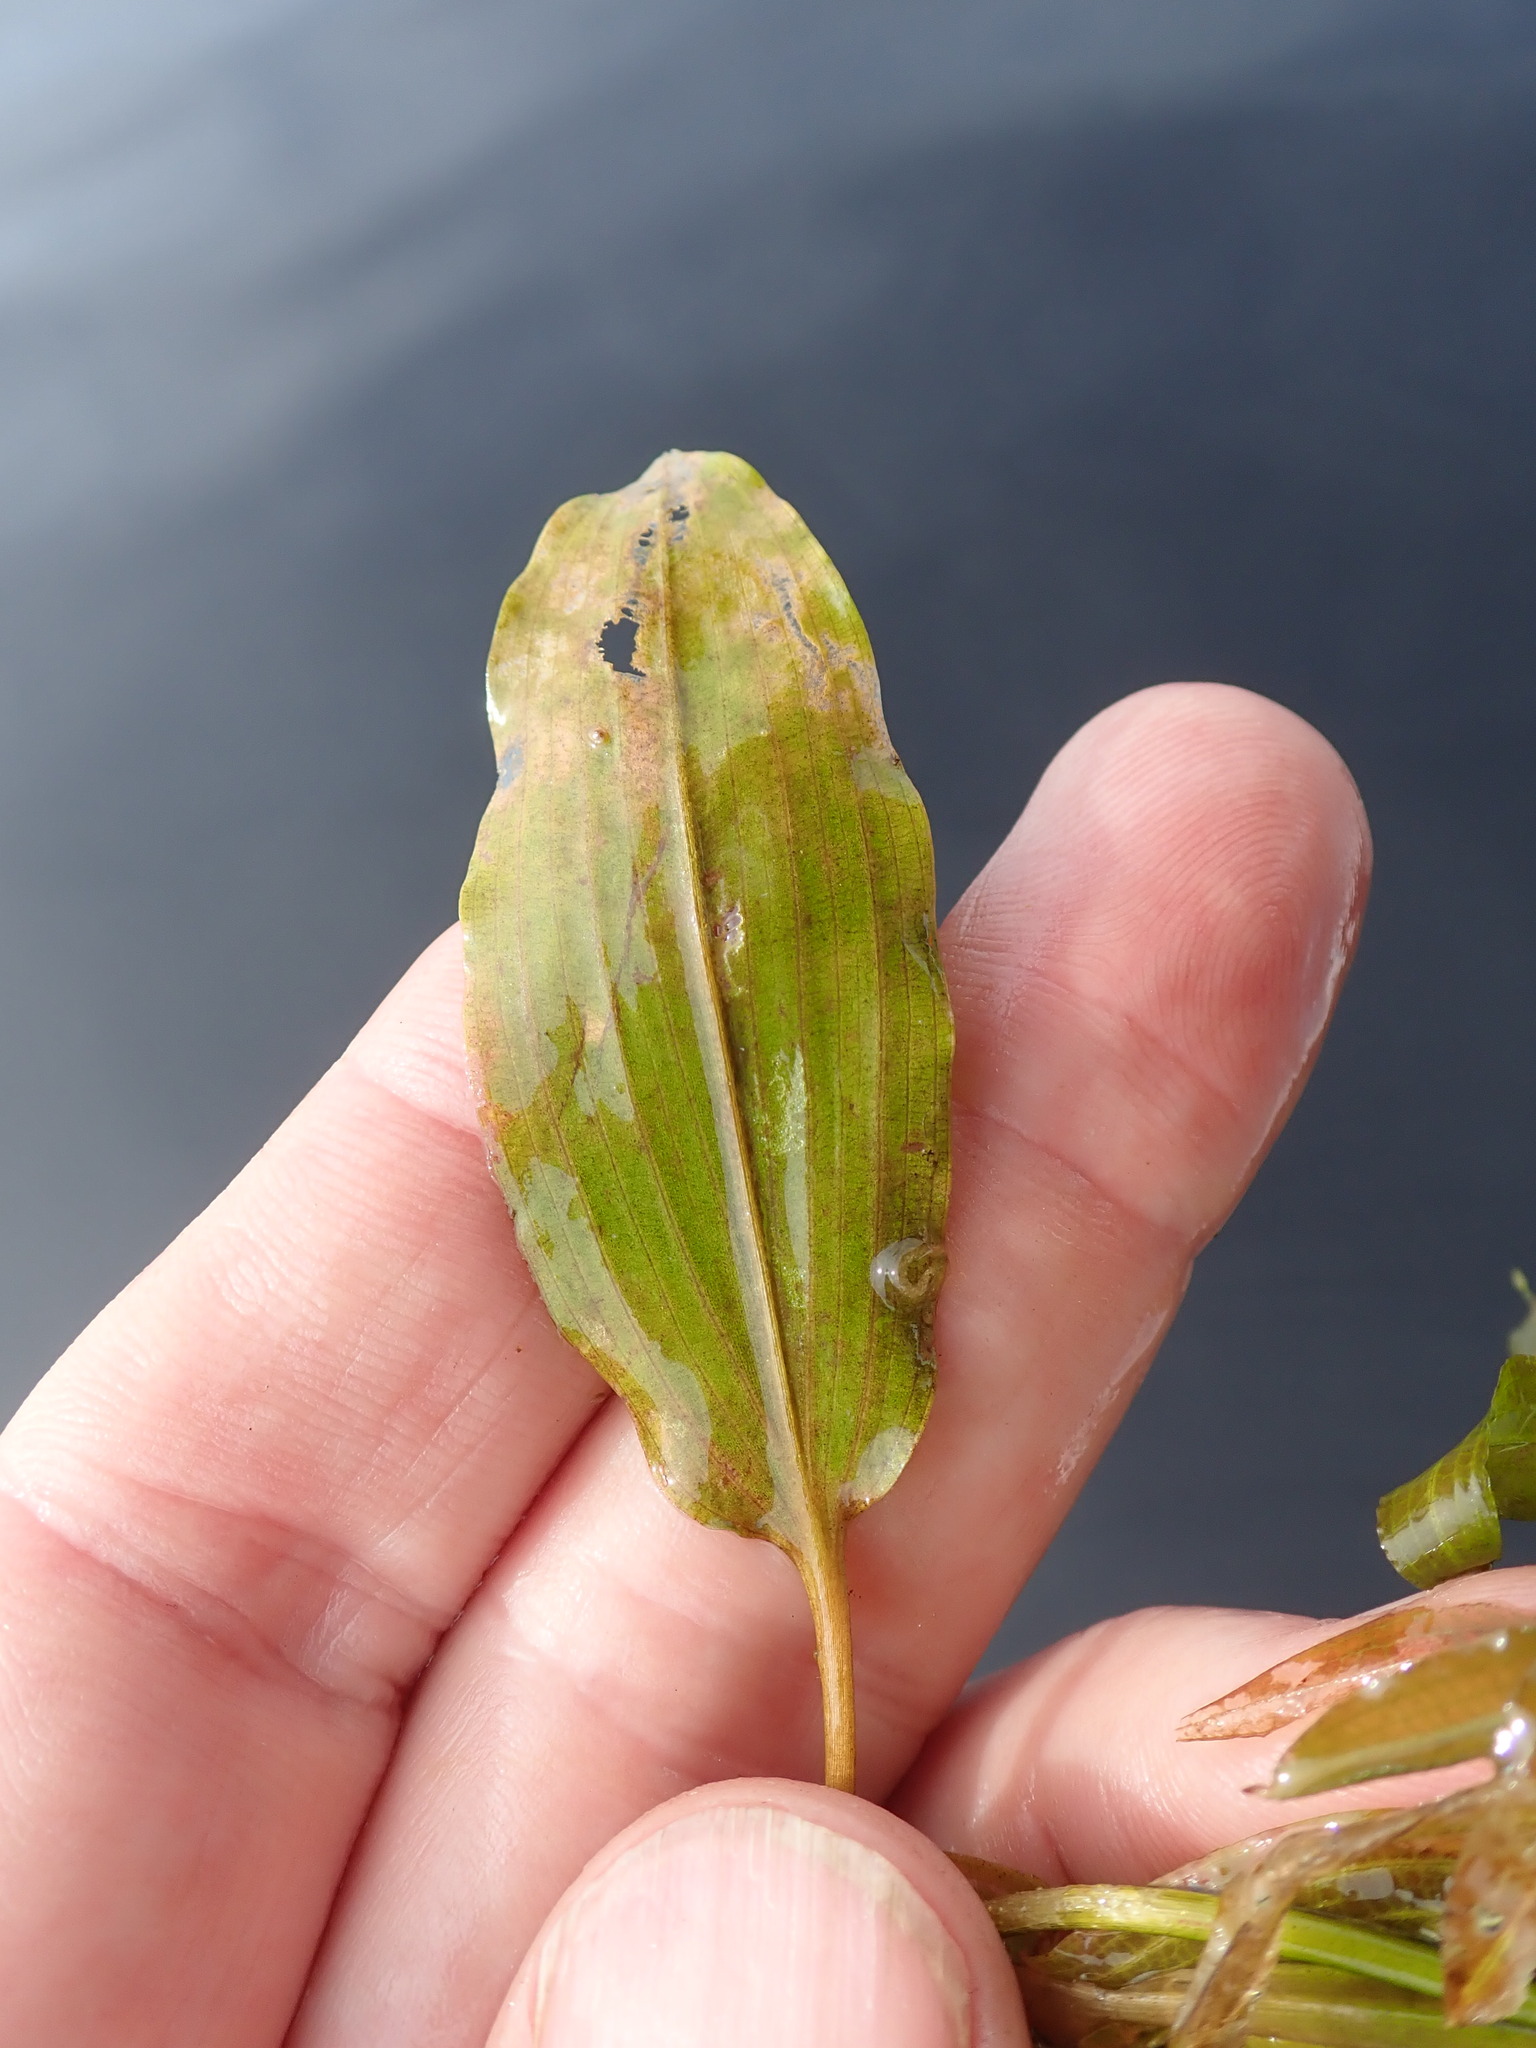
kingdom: Plantae
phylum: Tracheophyta
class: Liliopsida
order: Alismatales
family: Potamogetonaceae
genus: Potamogeton
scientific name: Potamogeton gramineus
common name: Various-leaved pondweed
